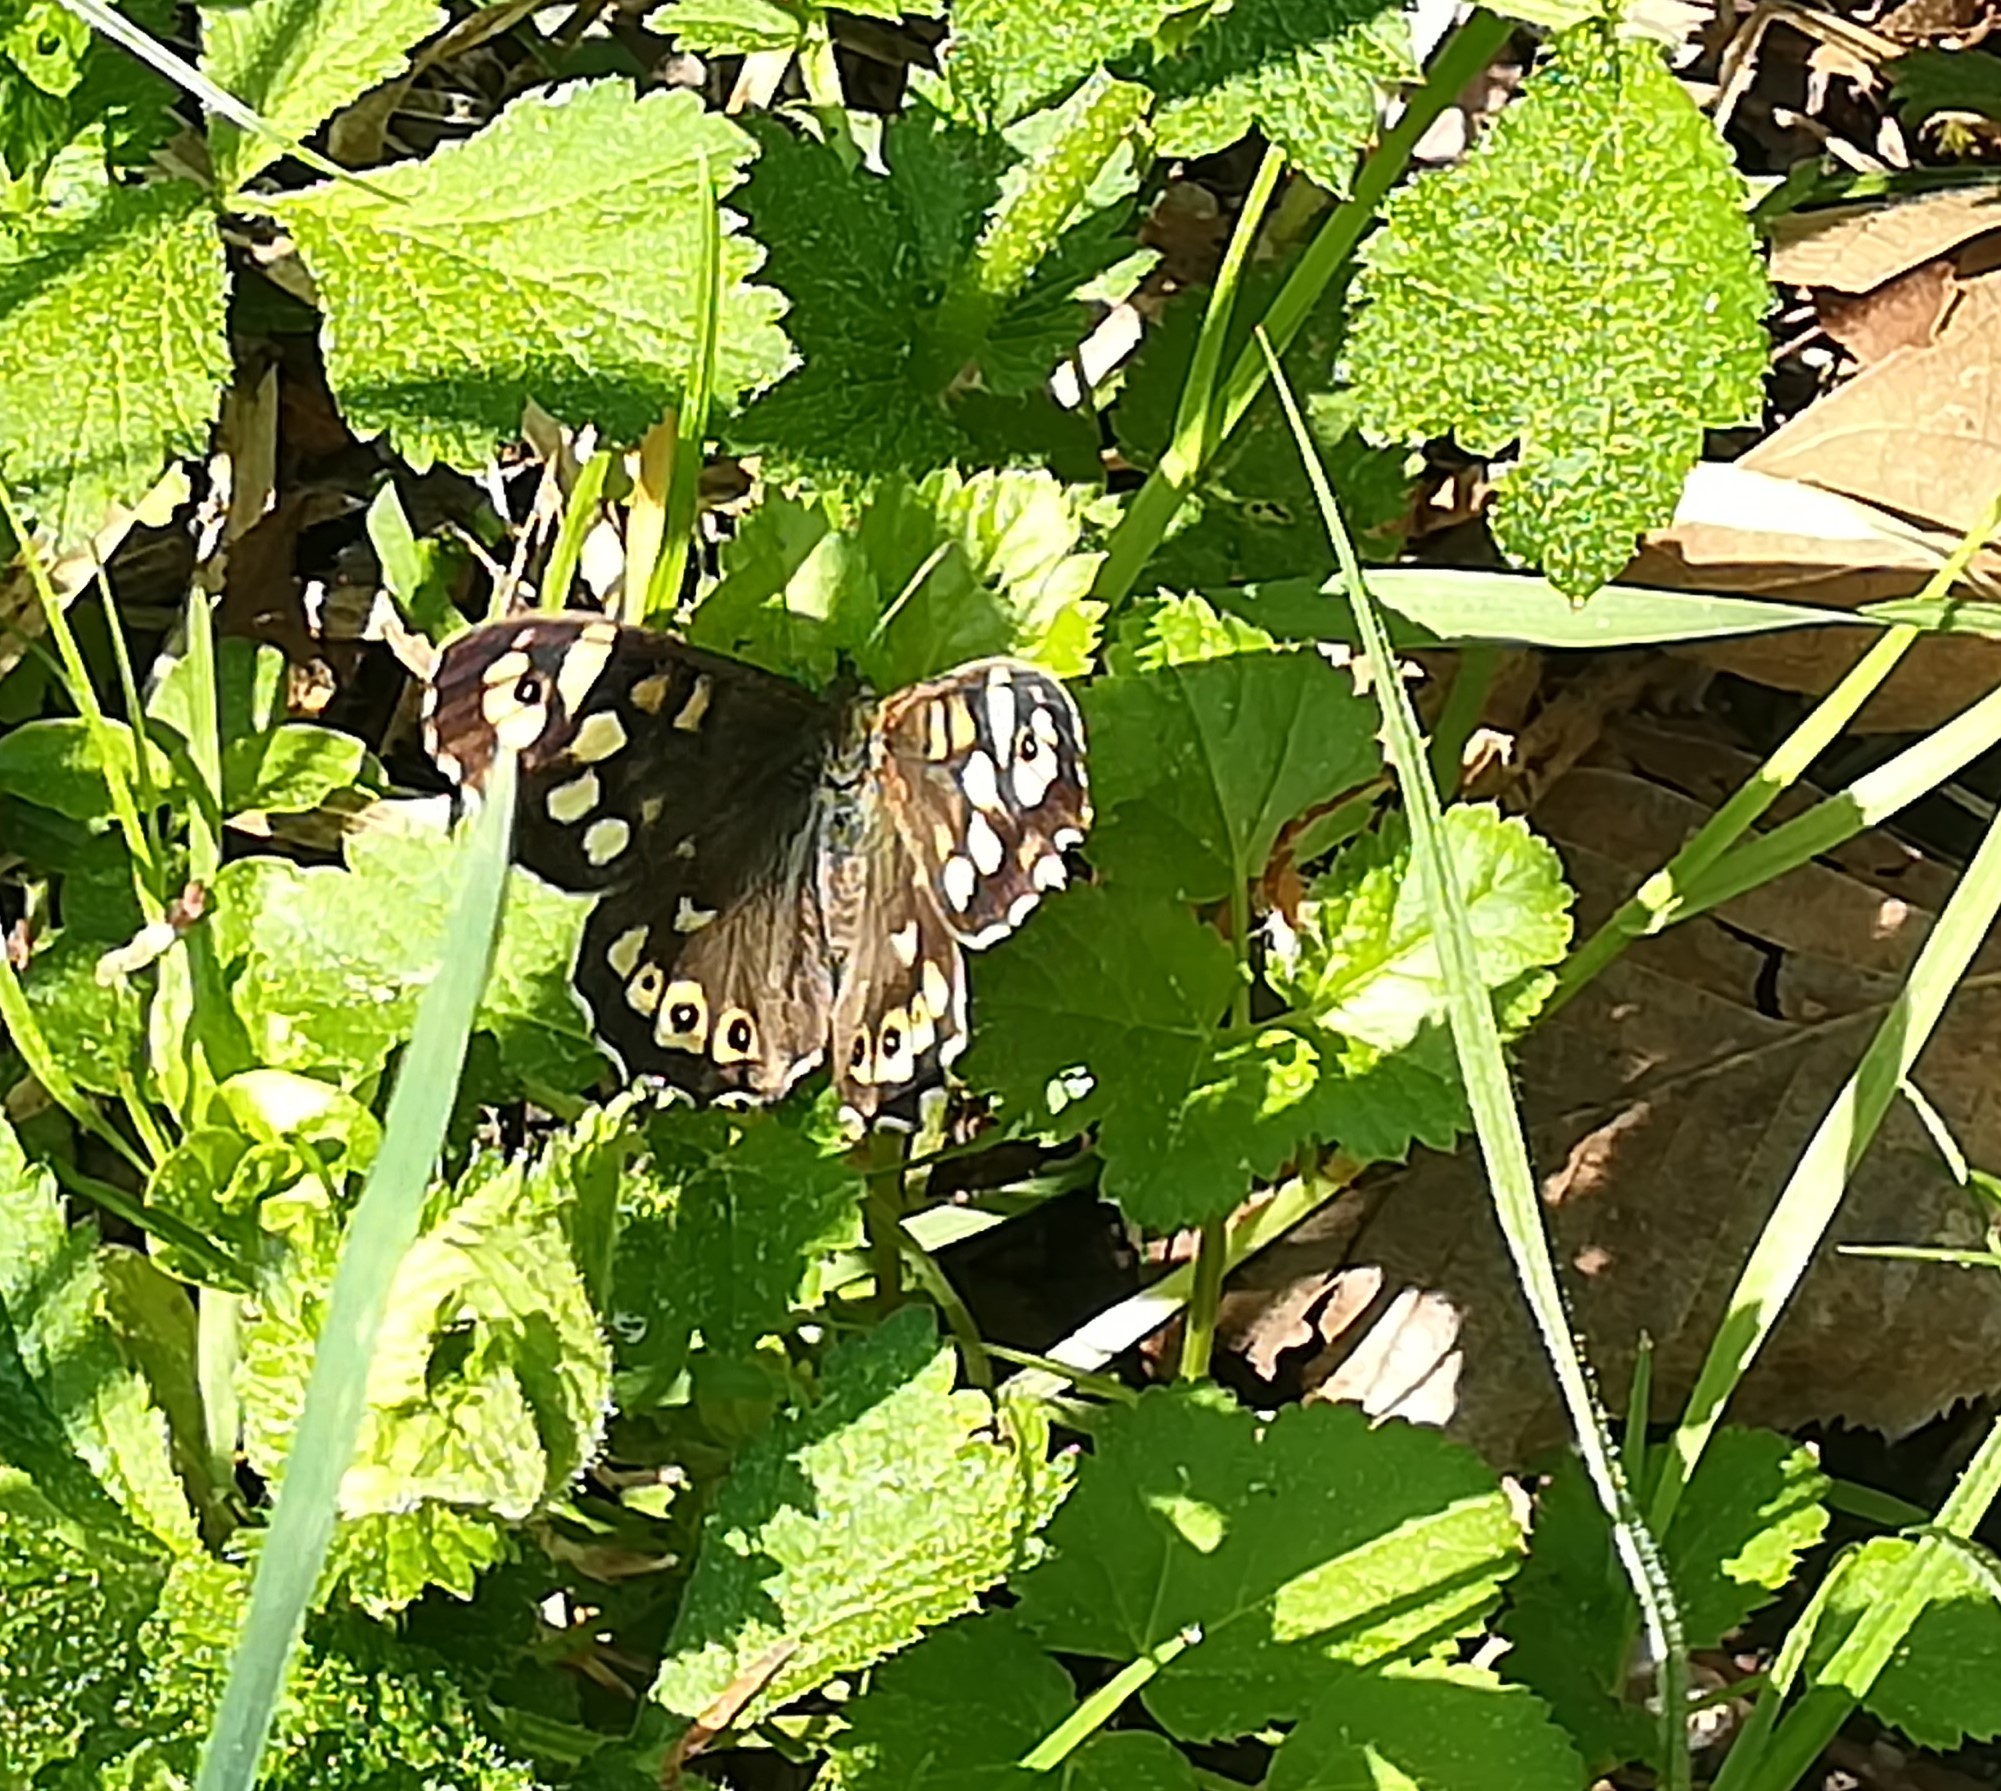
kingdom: Animalia
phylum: Arthropoda
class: Insecta
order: Lepidoptera
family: Nymphalidae
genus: Pararge
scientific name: Pararge aegeria
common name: Speckled wood
